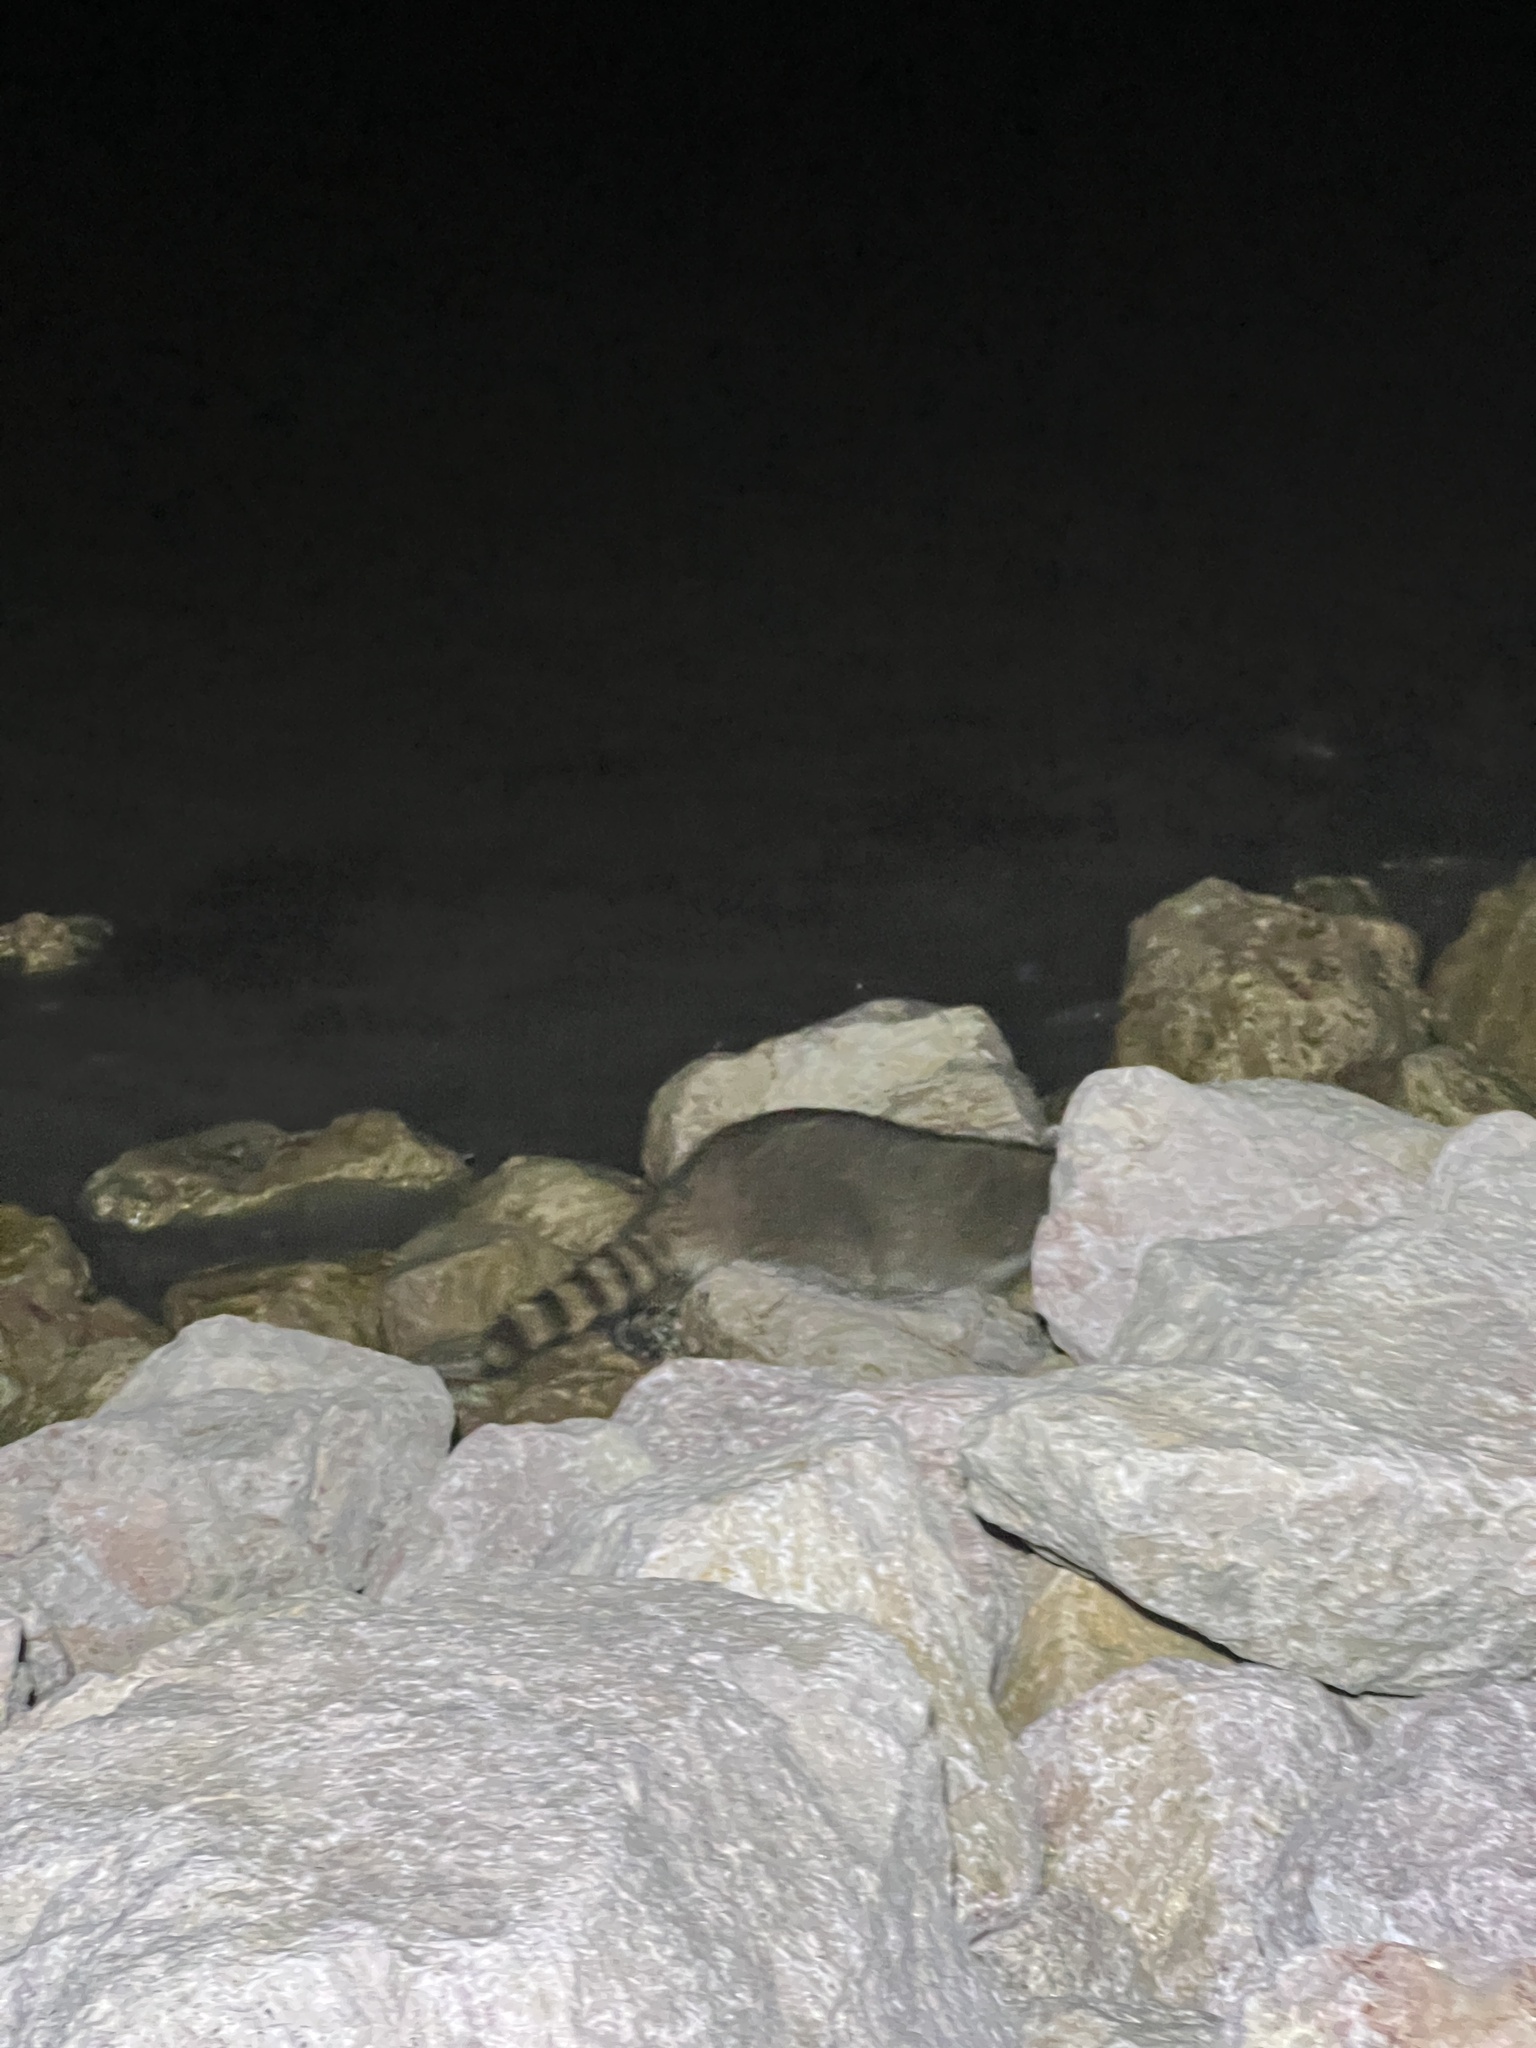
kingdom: Animalia
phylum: Chordata
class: Mammalia
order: Carnivora
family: Procyonidae
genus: Procyon
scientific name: Procyon lotor
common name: Raccoon
